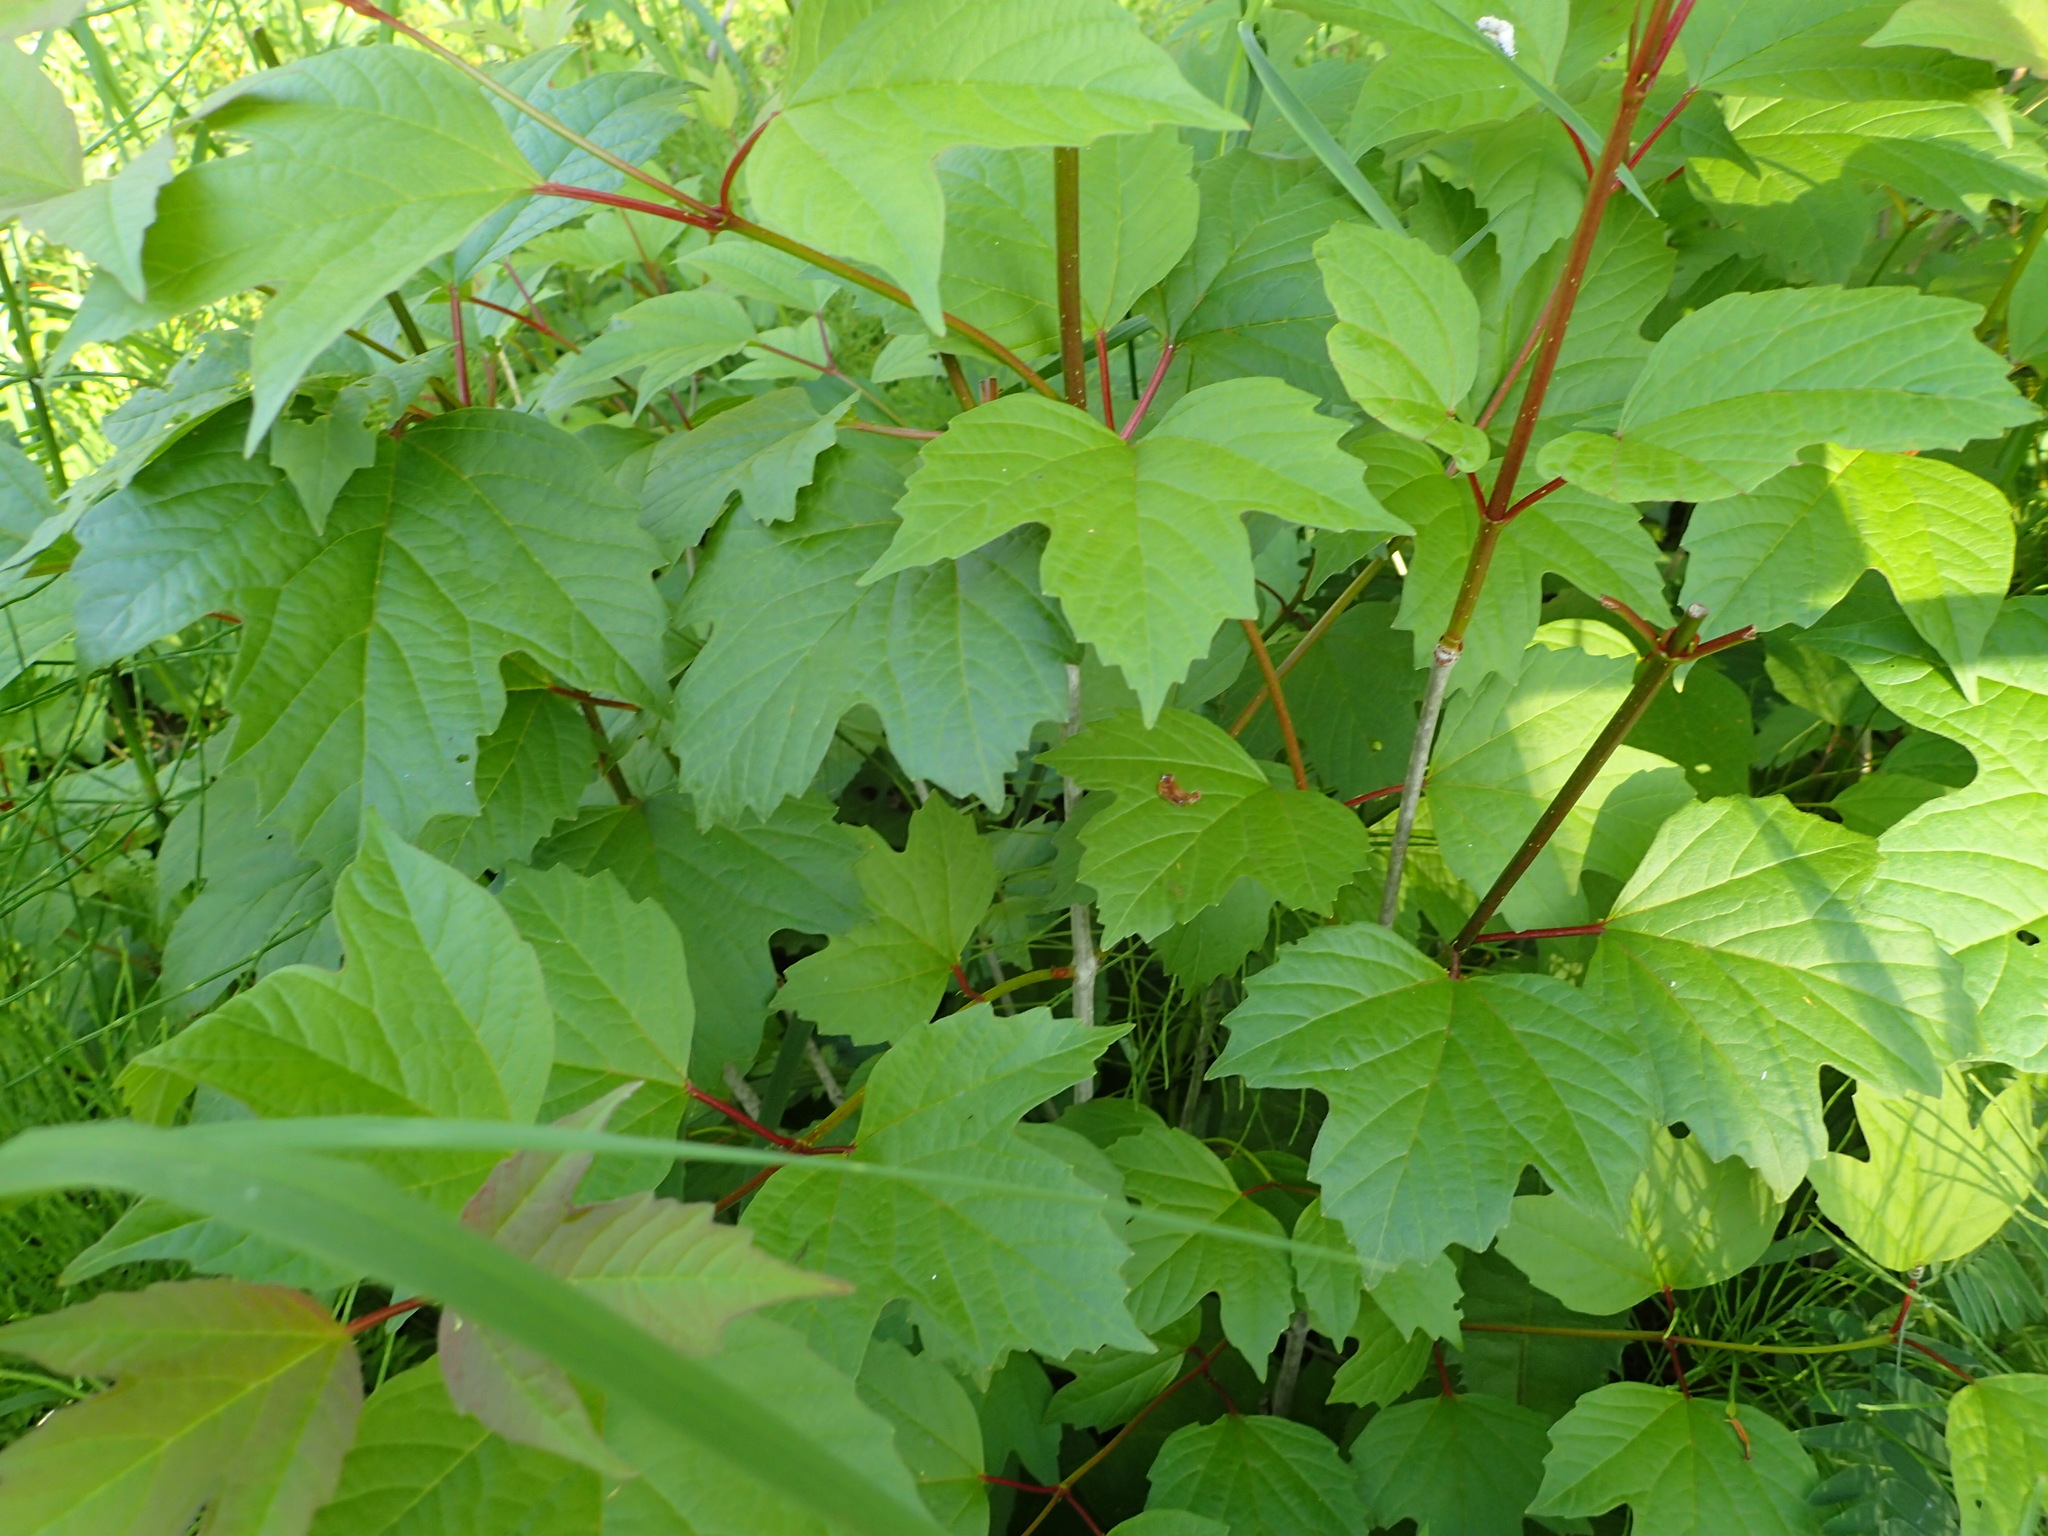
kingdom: Plantae
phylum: Tracheophyta
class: Magnoliopsida
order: Dipsacales
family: Viburnaceae
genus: Viburnum
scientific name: Viburnum opulus
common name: Guelder-rose
